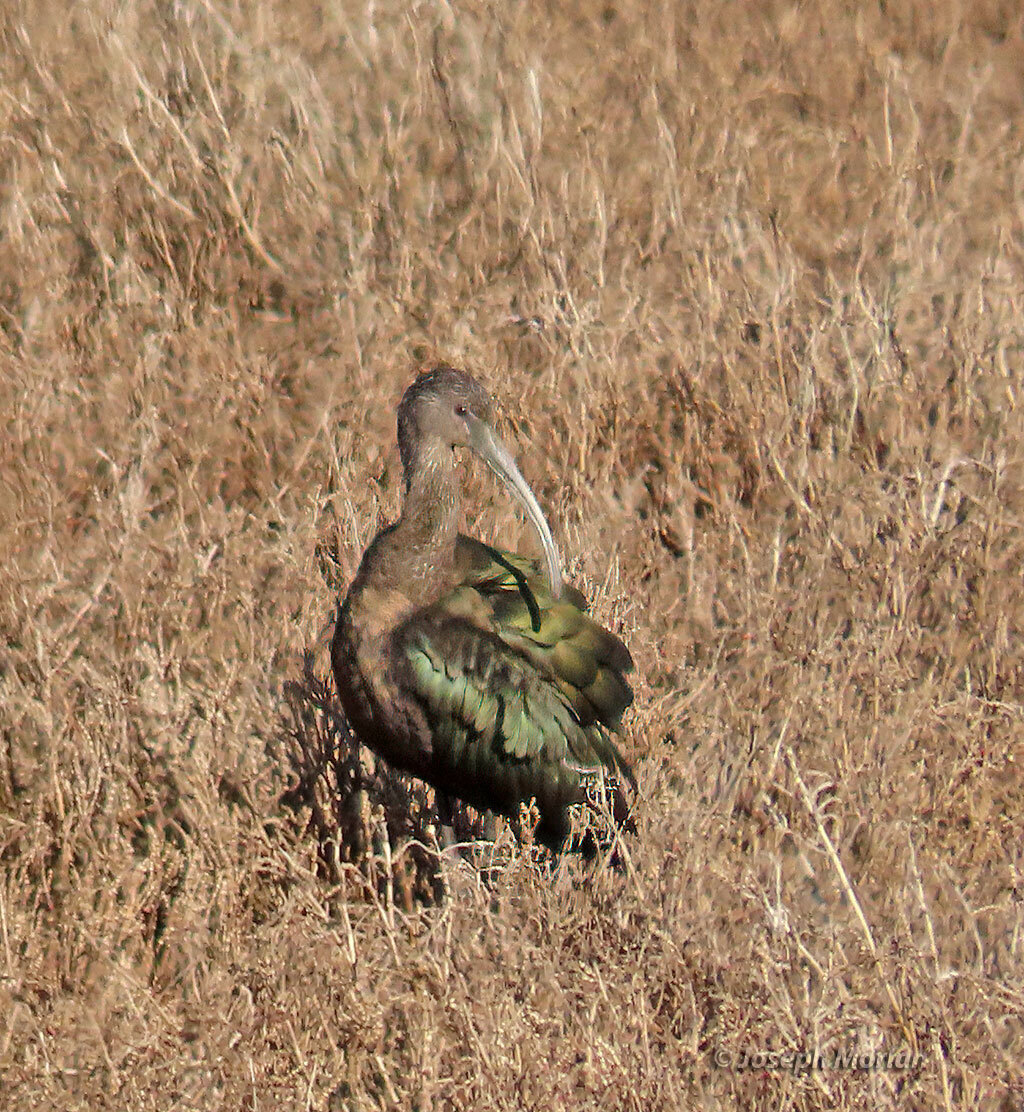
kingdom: Animalia
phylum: Chordata
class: Aves
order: Pelecaniformes
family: Threskiornithidae
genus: Plegadis
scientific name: Plegadis chihi
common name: White-faced ibis
